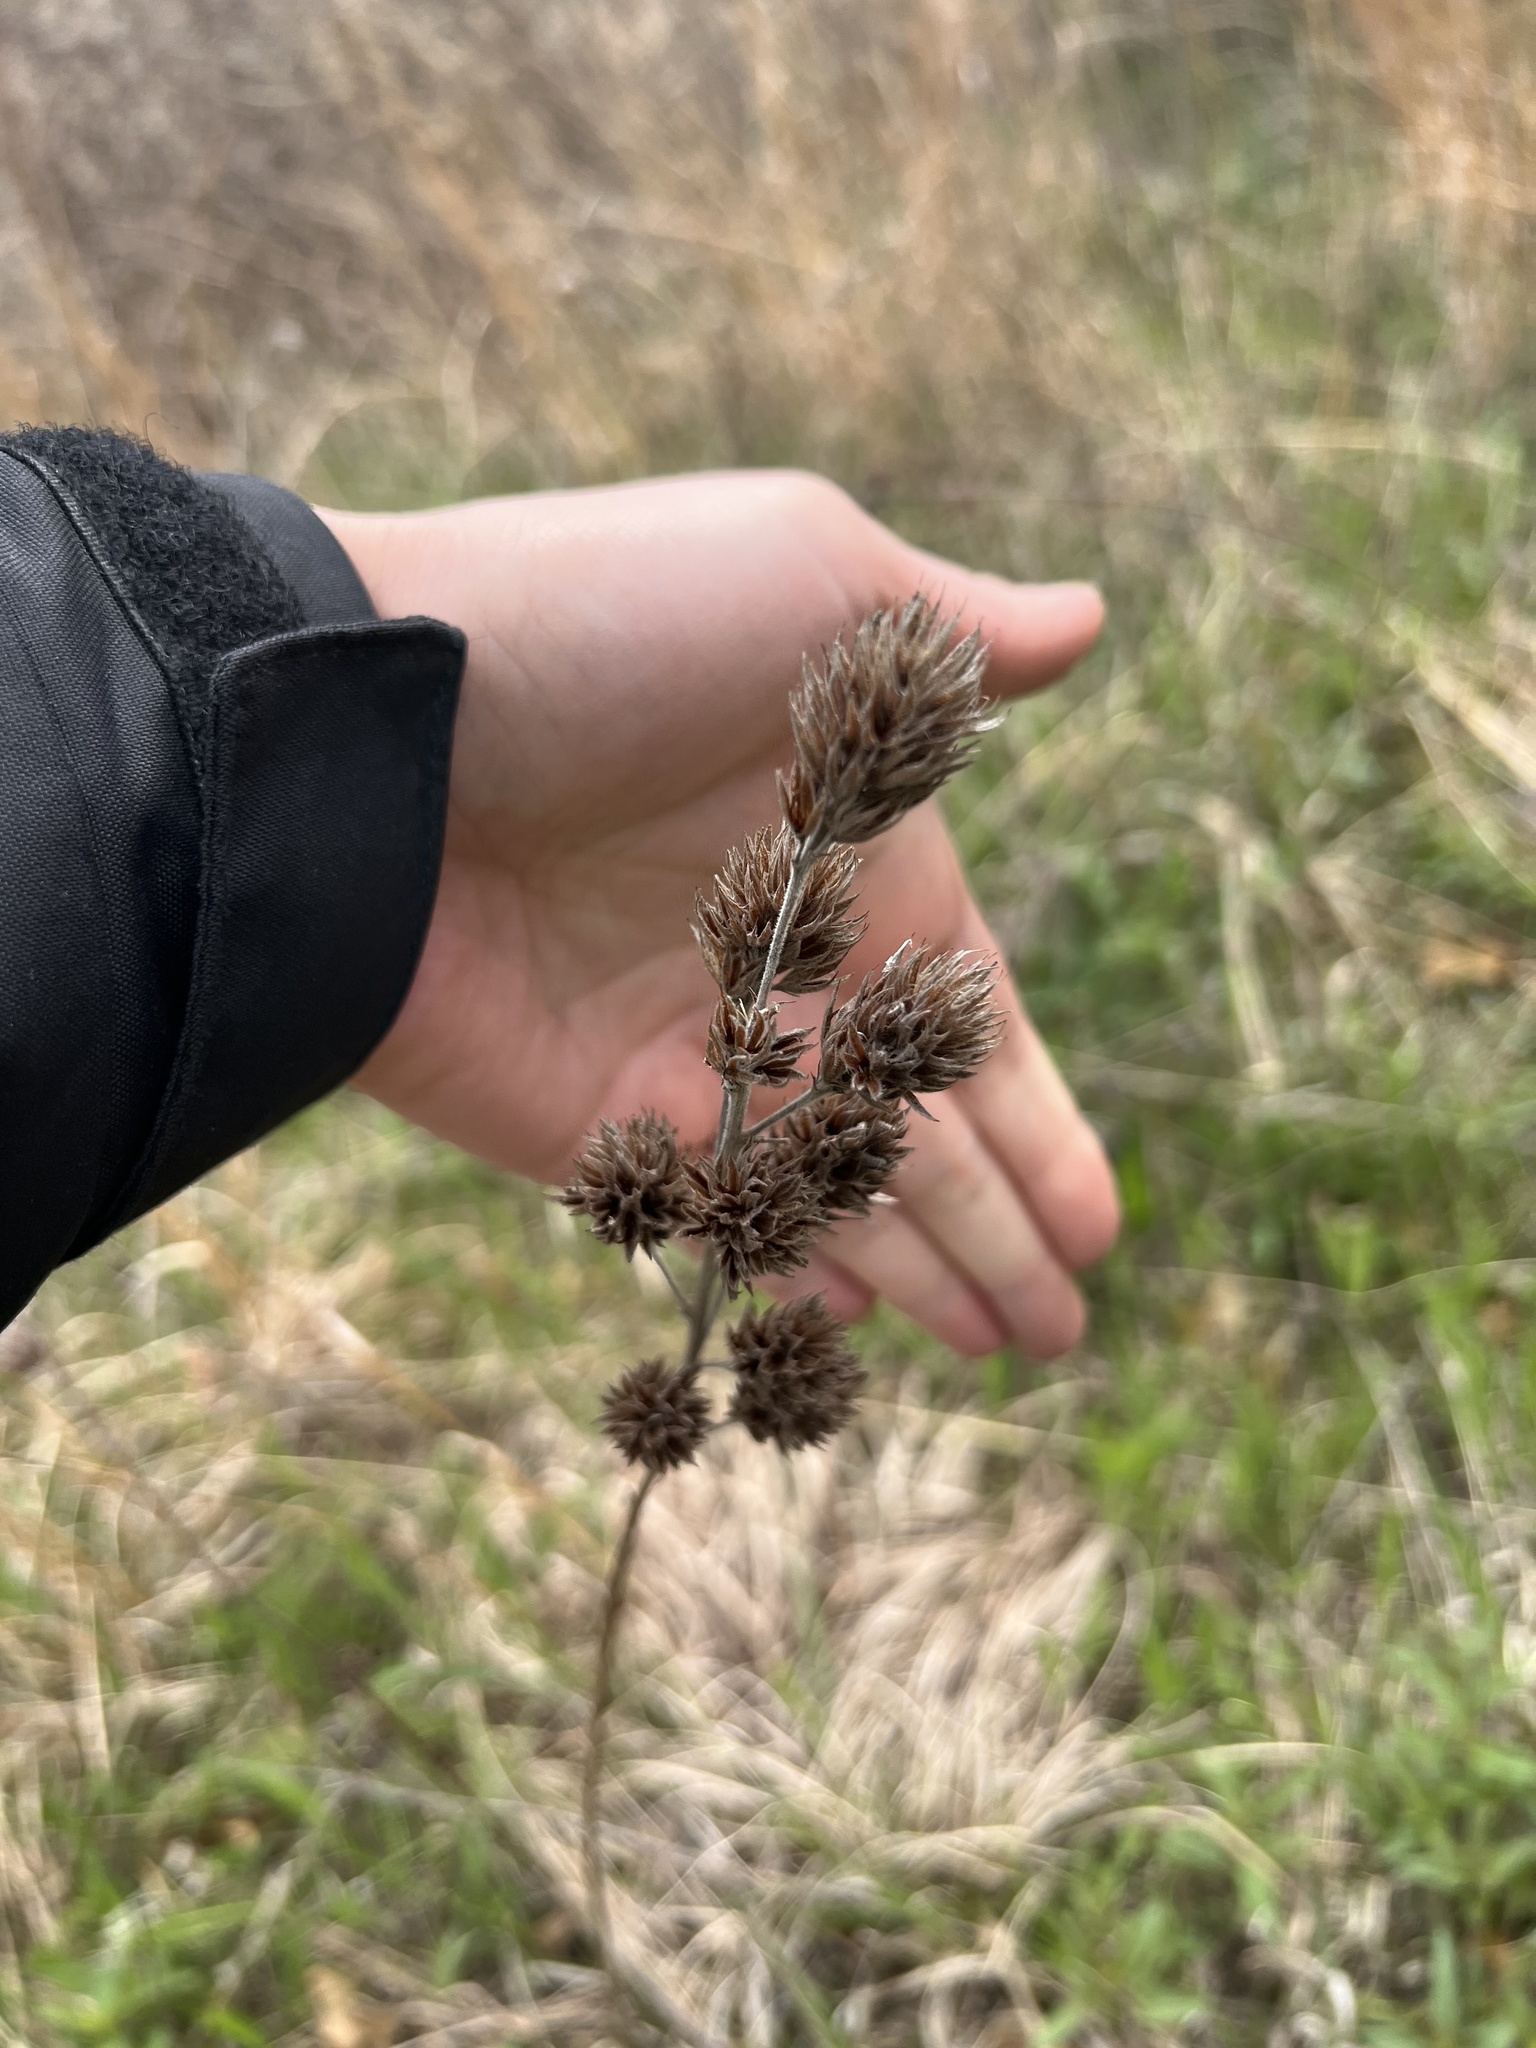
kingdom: Plantae
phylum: Tracheophyta
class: Magnoliopsida
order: Fabales
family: Fabaceae
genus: Lespedeza
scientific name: Lespedeza capitata
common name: Dusty clover
